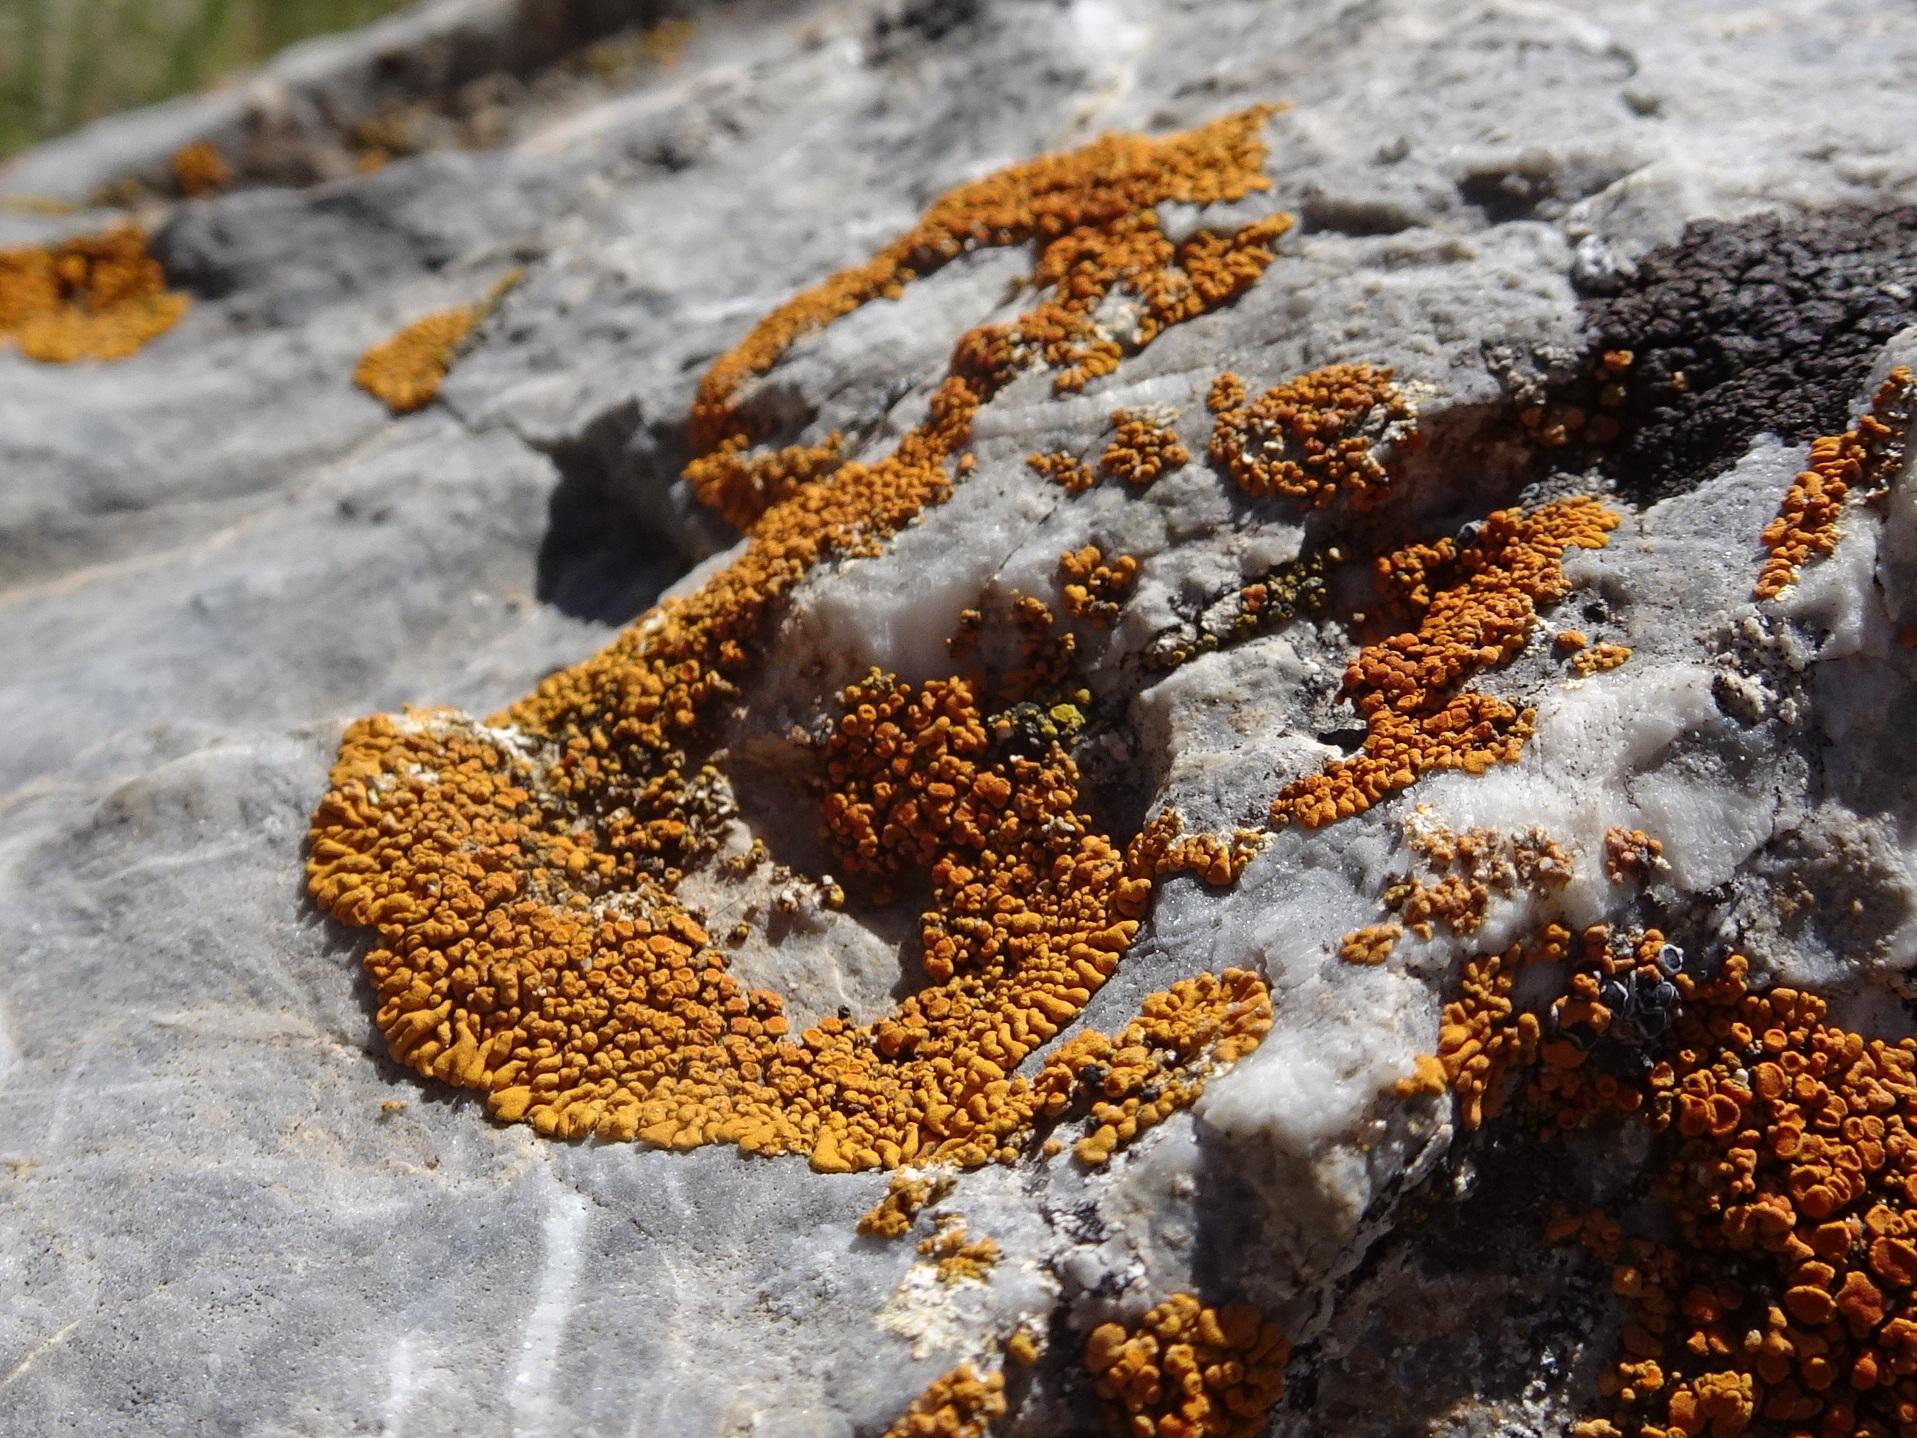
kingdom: Fungi
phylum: Ascomycota
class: Lecanoromycetes
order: Teloschistales
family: Teloschistaceae
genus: Xanthoria
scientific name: Xanthoria elegans
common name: Elegant sunburst lichen
